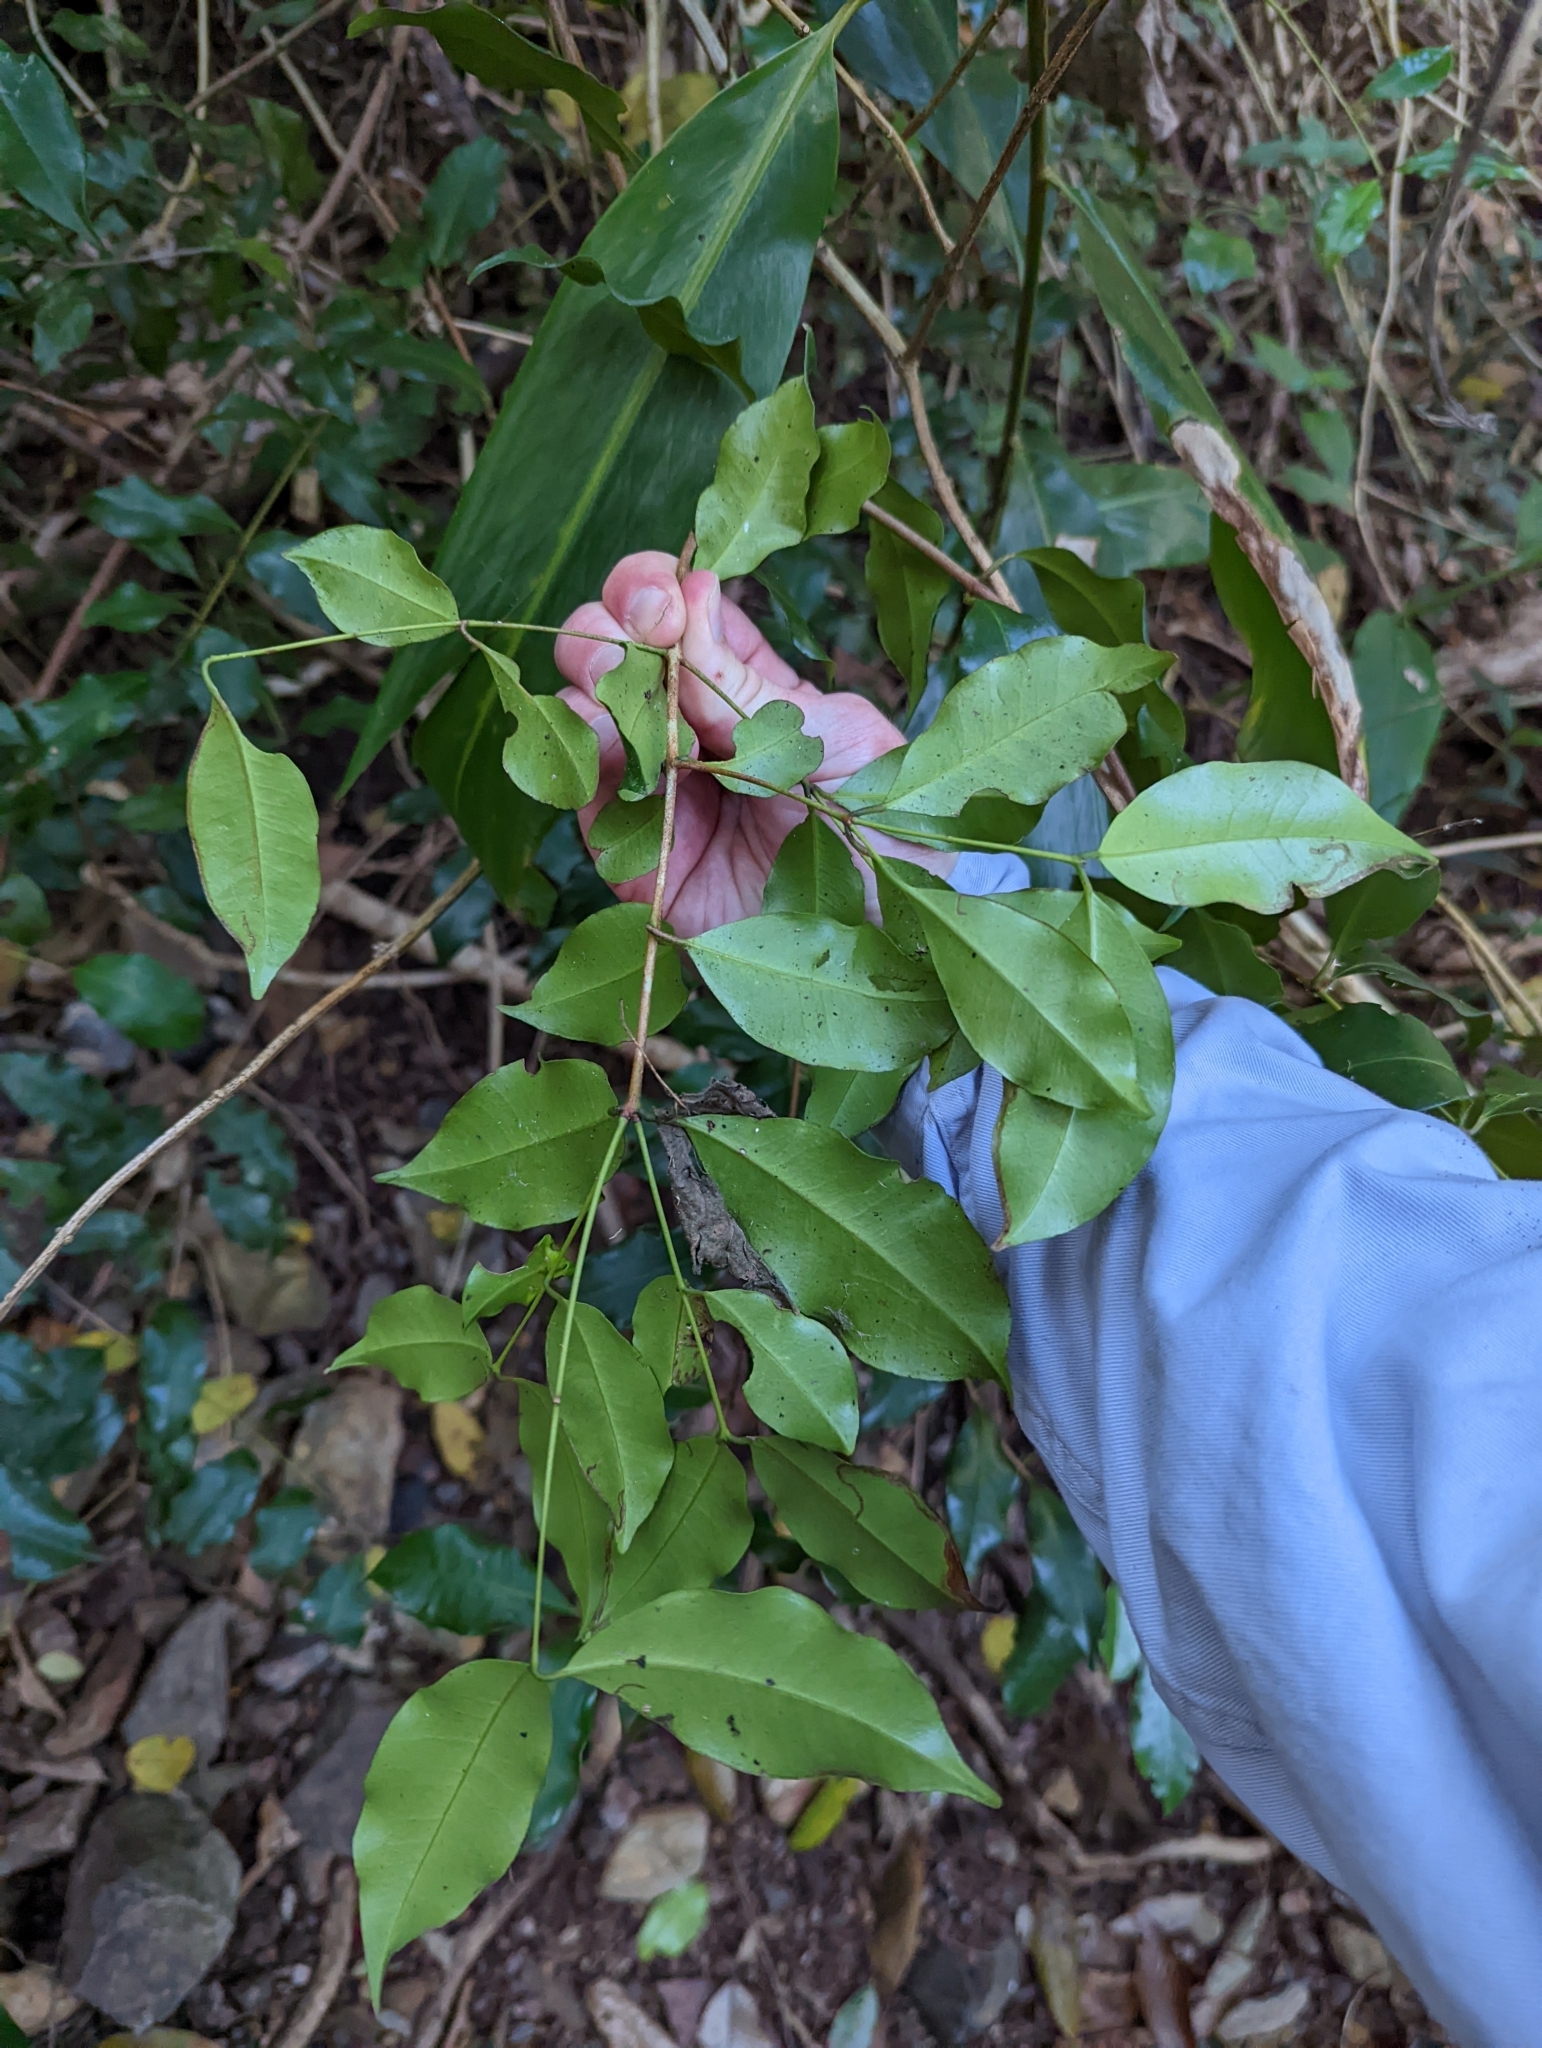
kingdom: Plantae
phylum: Tracheophyta
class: Magnoliopsida
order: Myrtales
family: Myrtaceae
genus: Syzygium
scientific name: Syzygium oleosum
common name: Oily satin-ash
